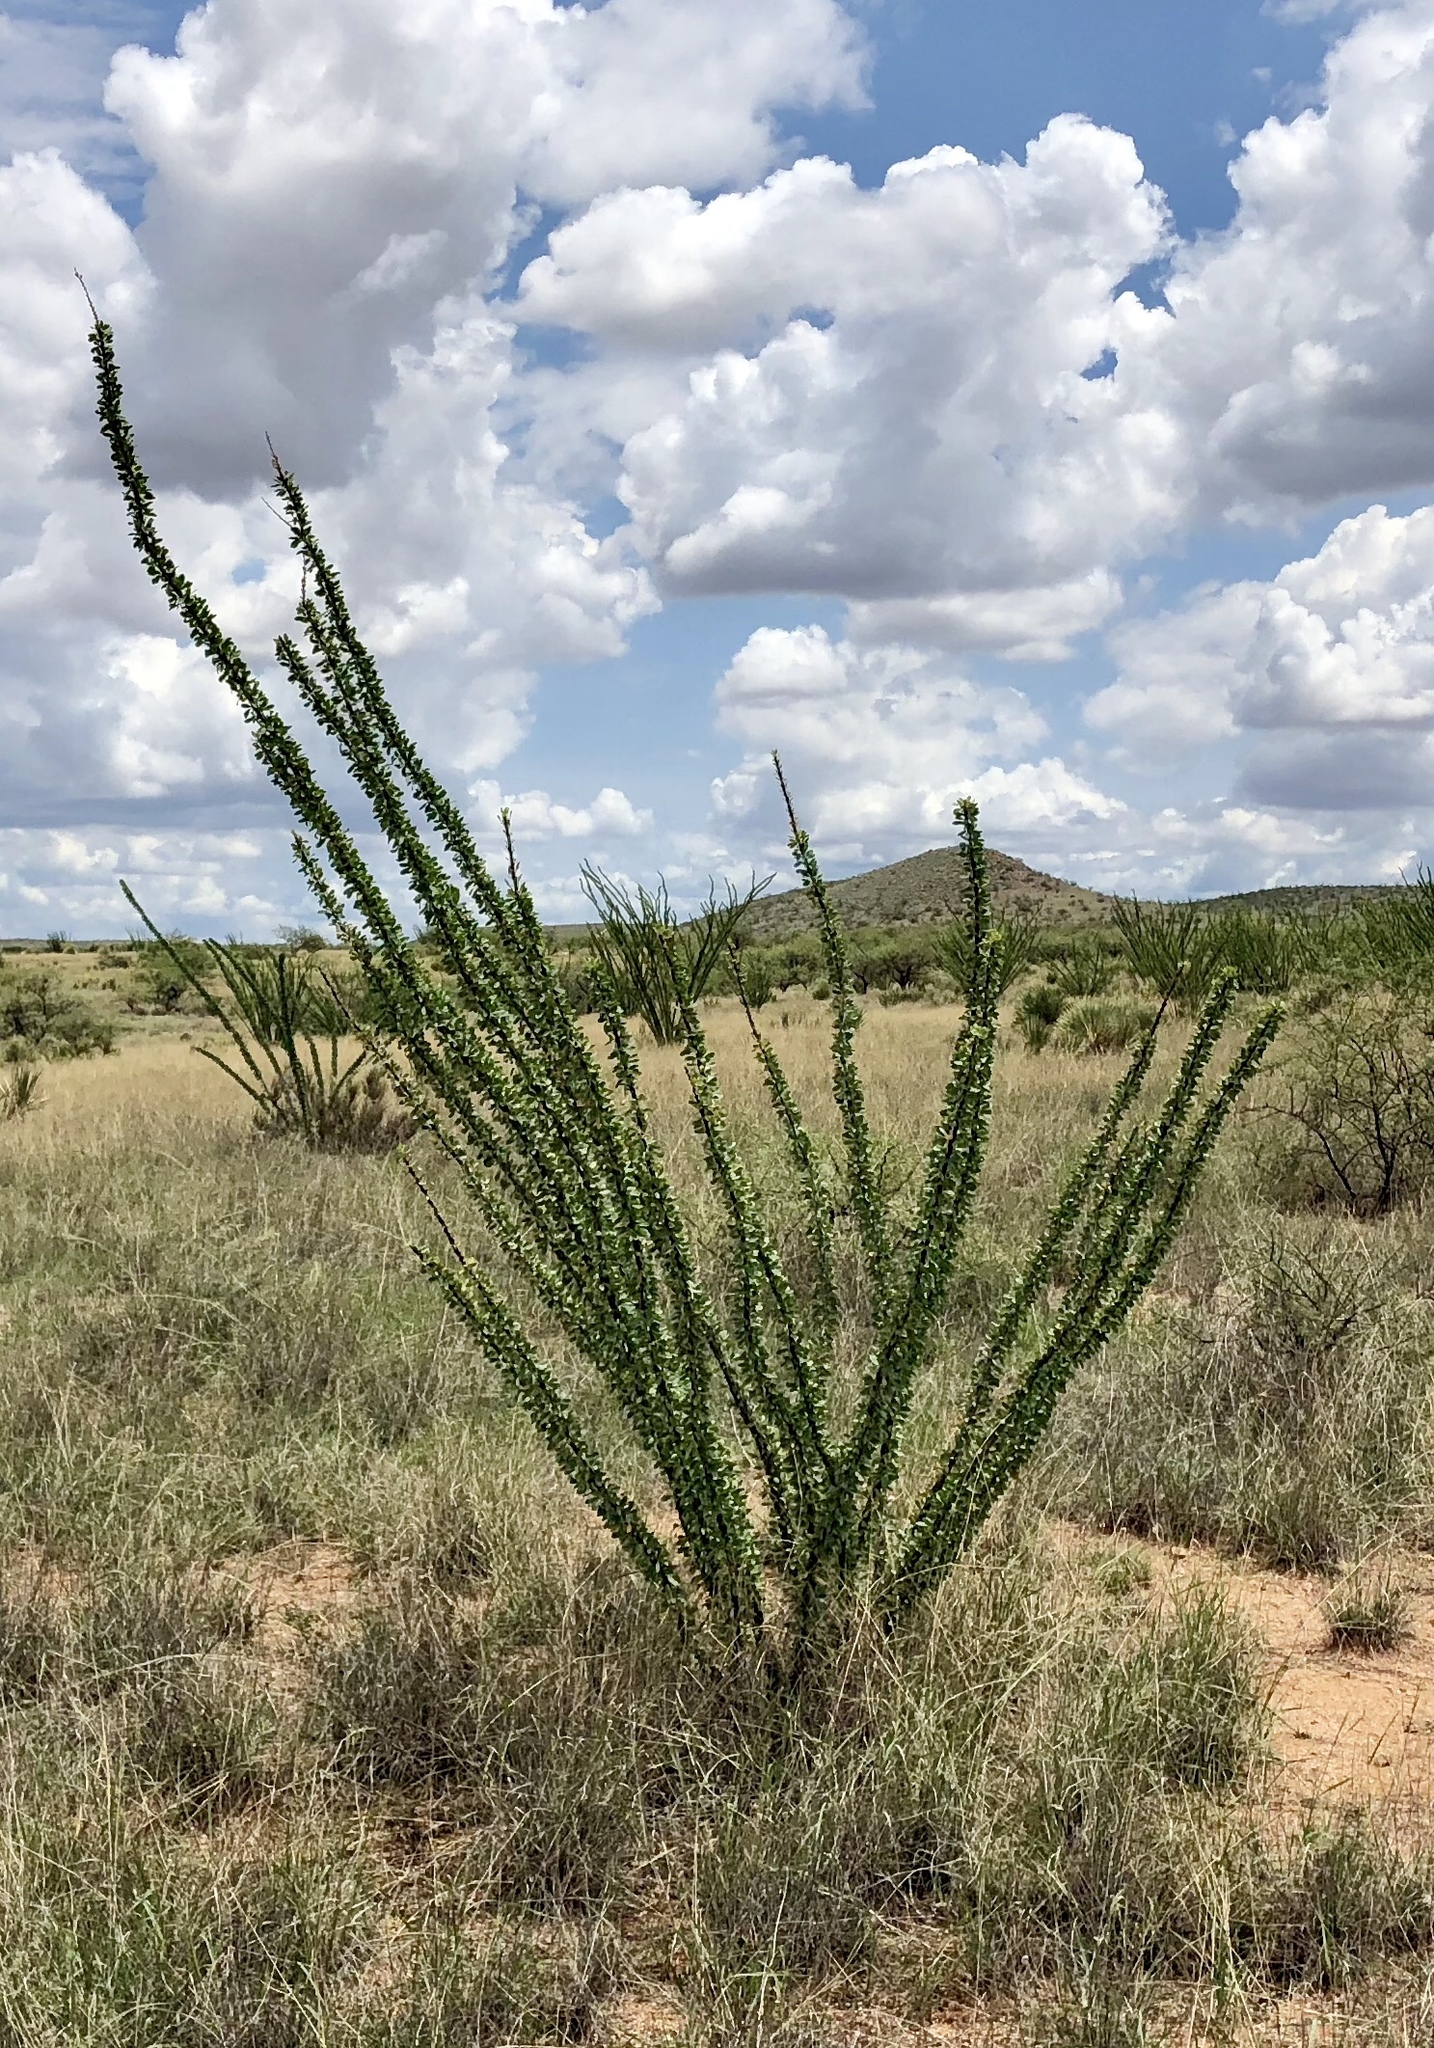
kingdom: Plantae
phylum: Tracheophyta
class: Magnoliopsida
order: Ericales
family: Fouquieriaceae
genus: Fouquieria
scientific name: Fouquieria splendens
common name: Vine-cactus
